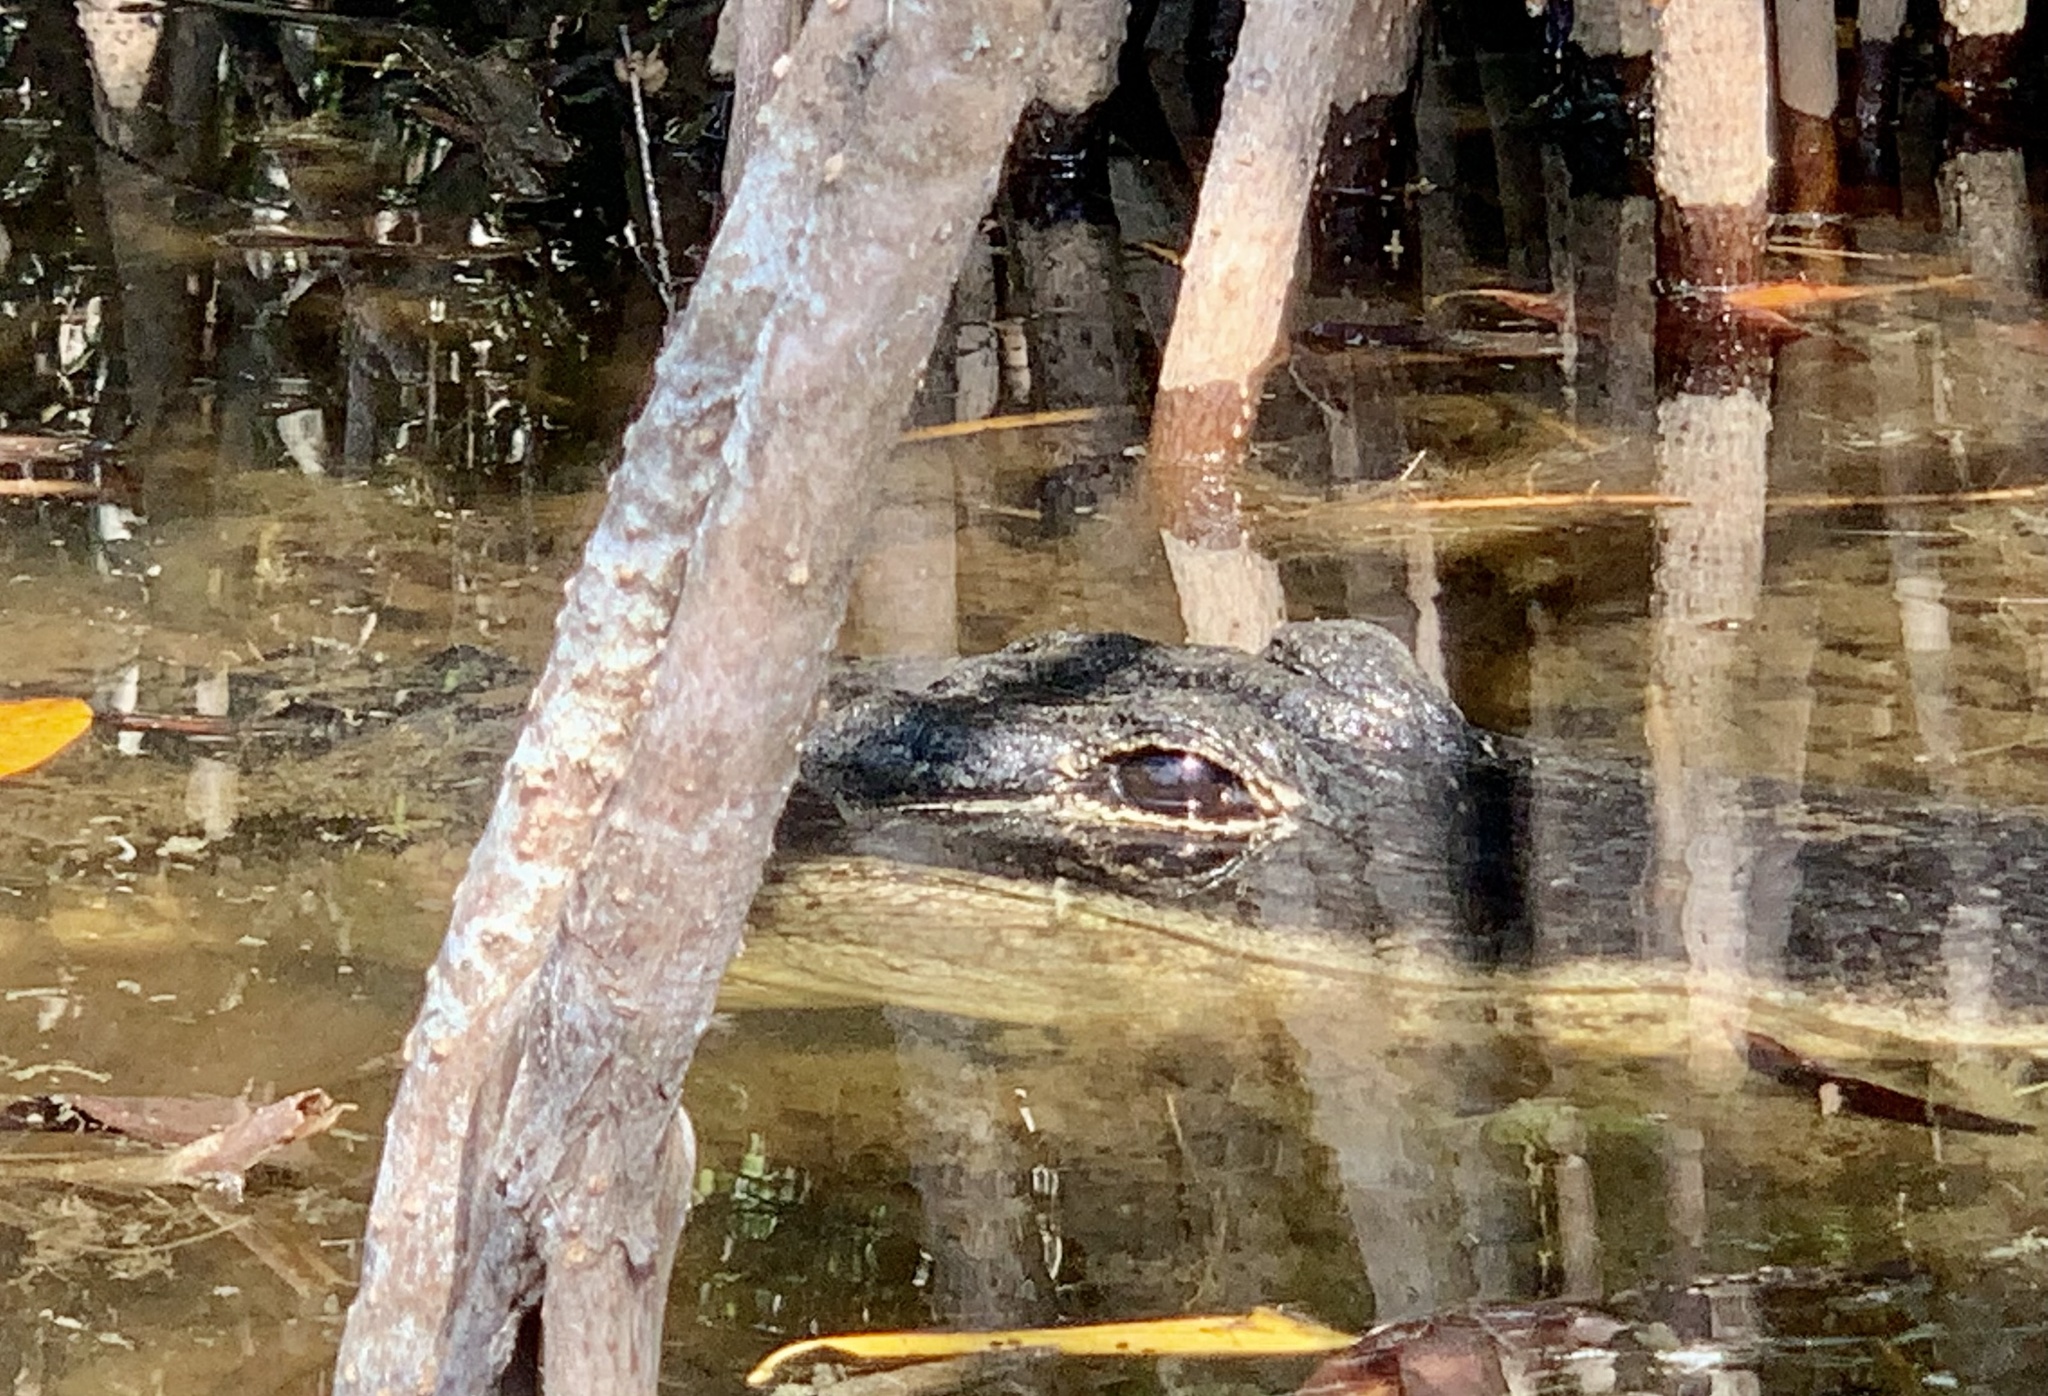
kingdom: Animalia
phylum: Chordata
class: Crocodylia
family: Alligatoridae
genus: Alligator
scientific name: Alligator mississippiensis
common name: American alligator
